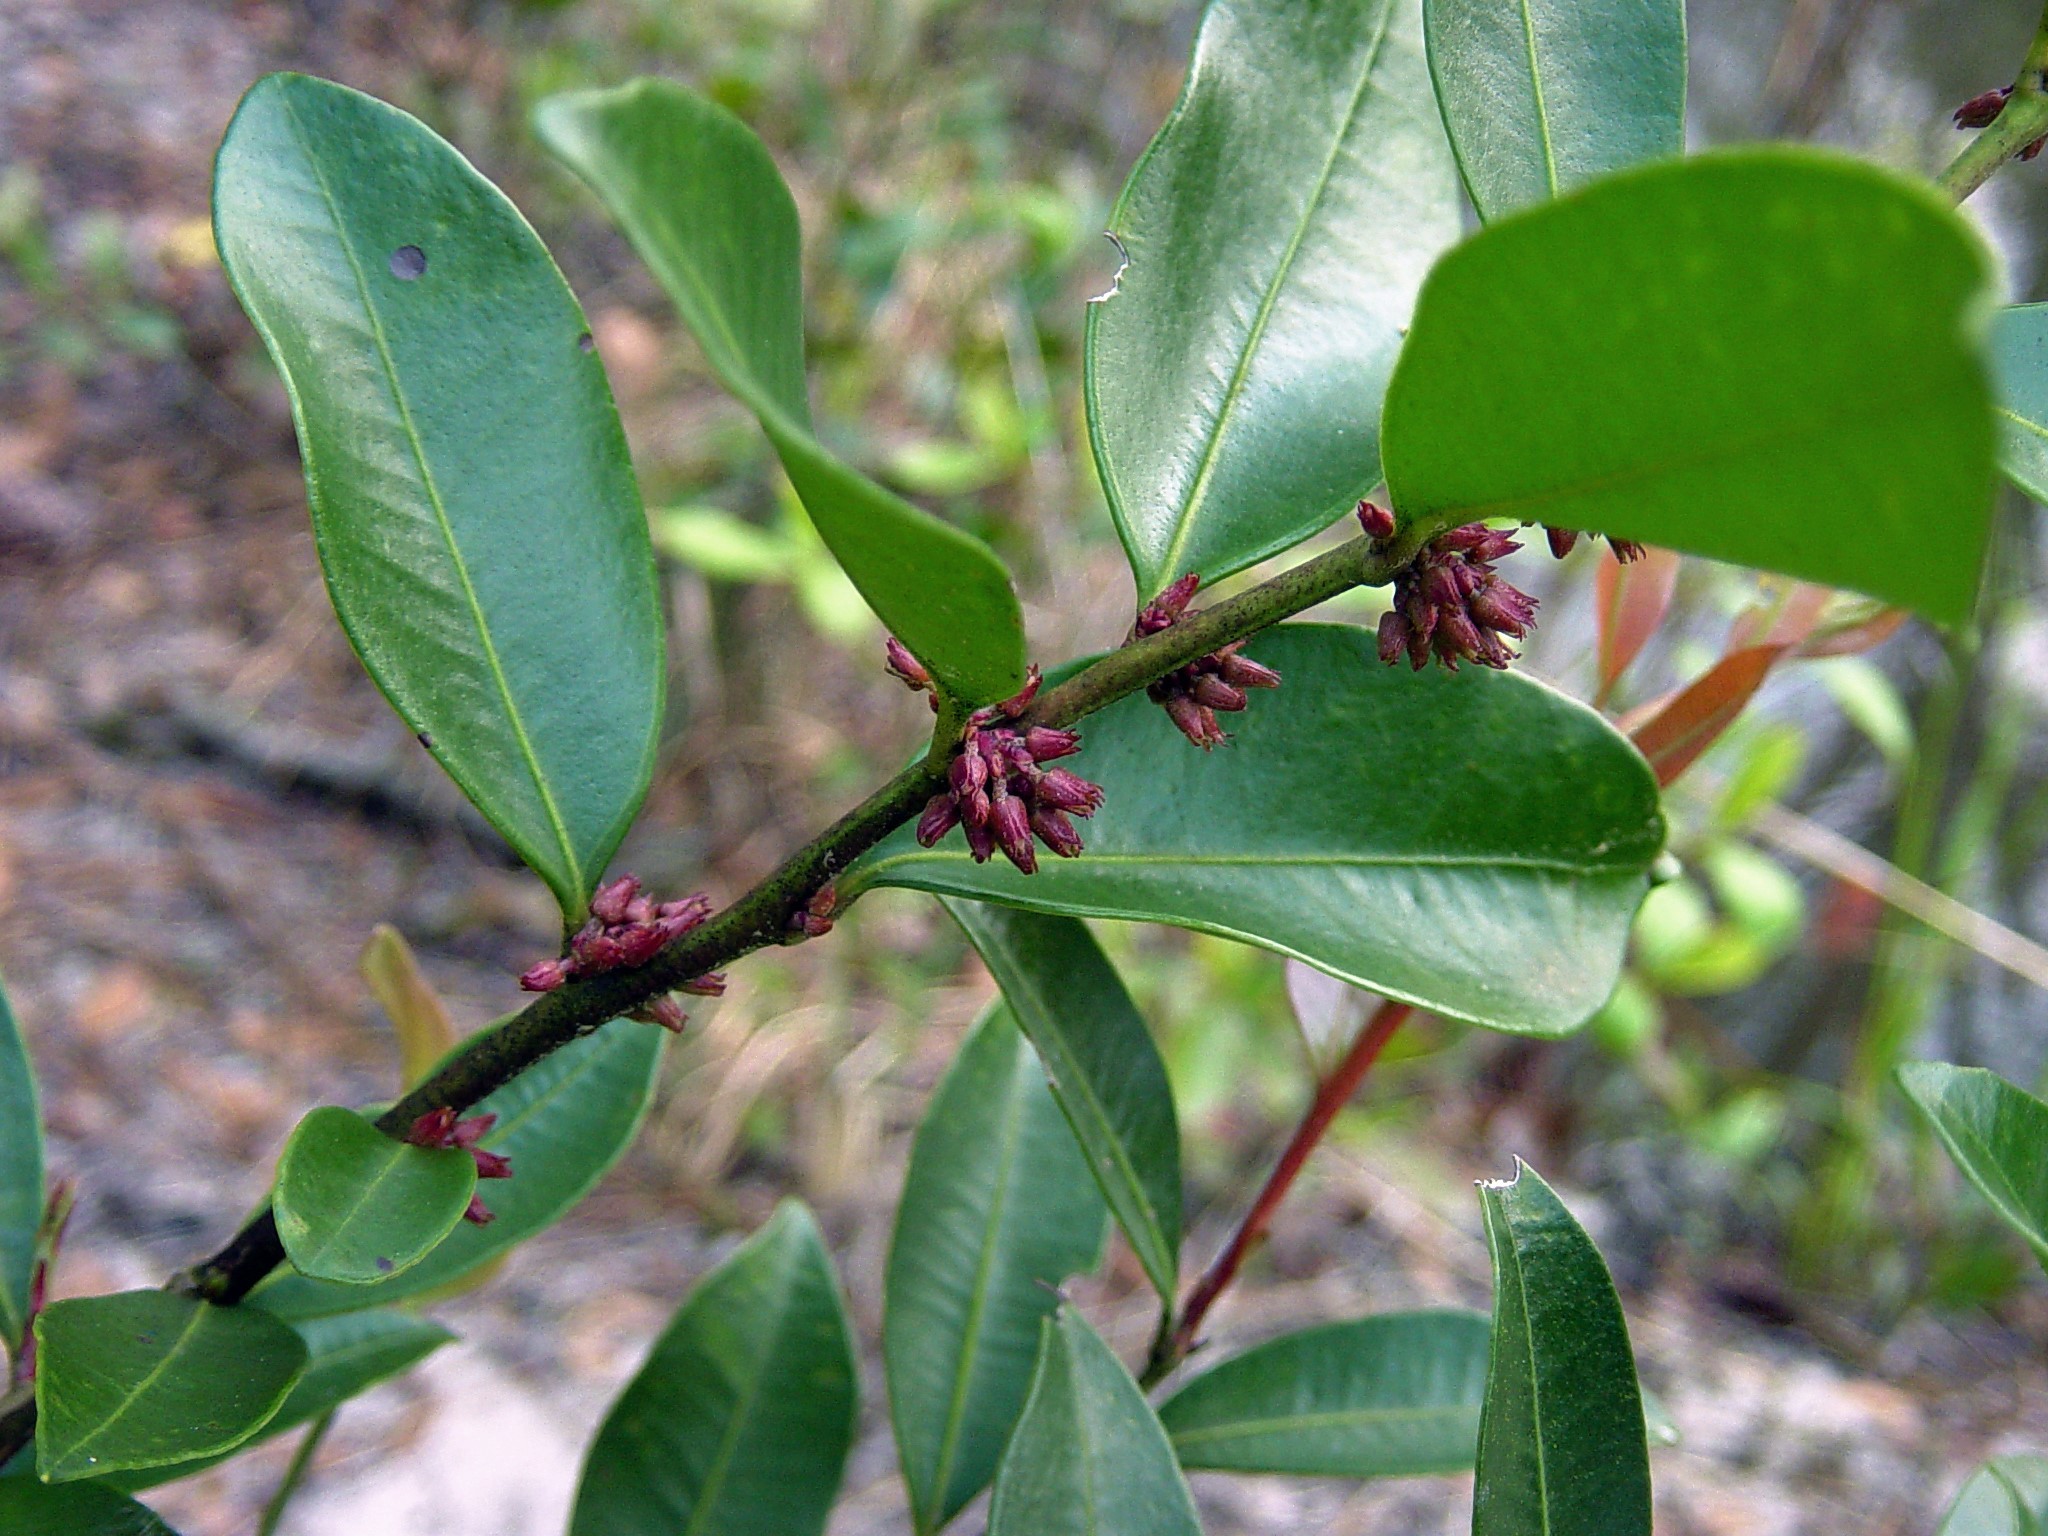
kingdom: Plantae
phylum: Tracheophyta
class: Magnoliopsida
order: Ericales
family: Ericaceae
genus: Lyonia
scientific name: Lyonia lucida
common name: Fetterbush
